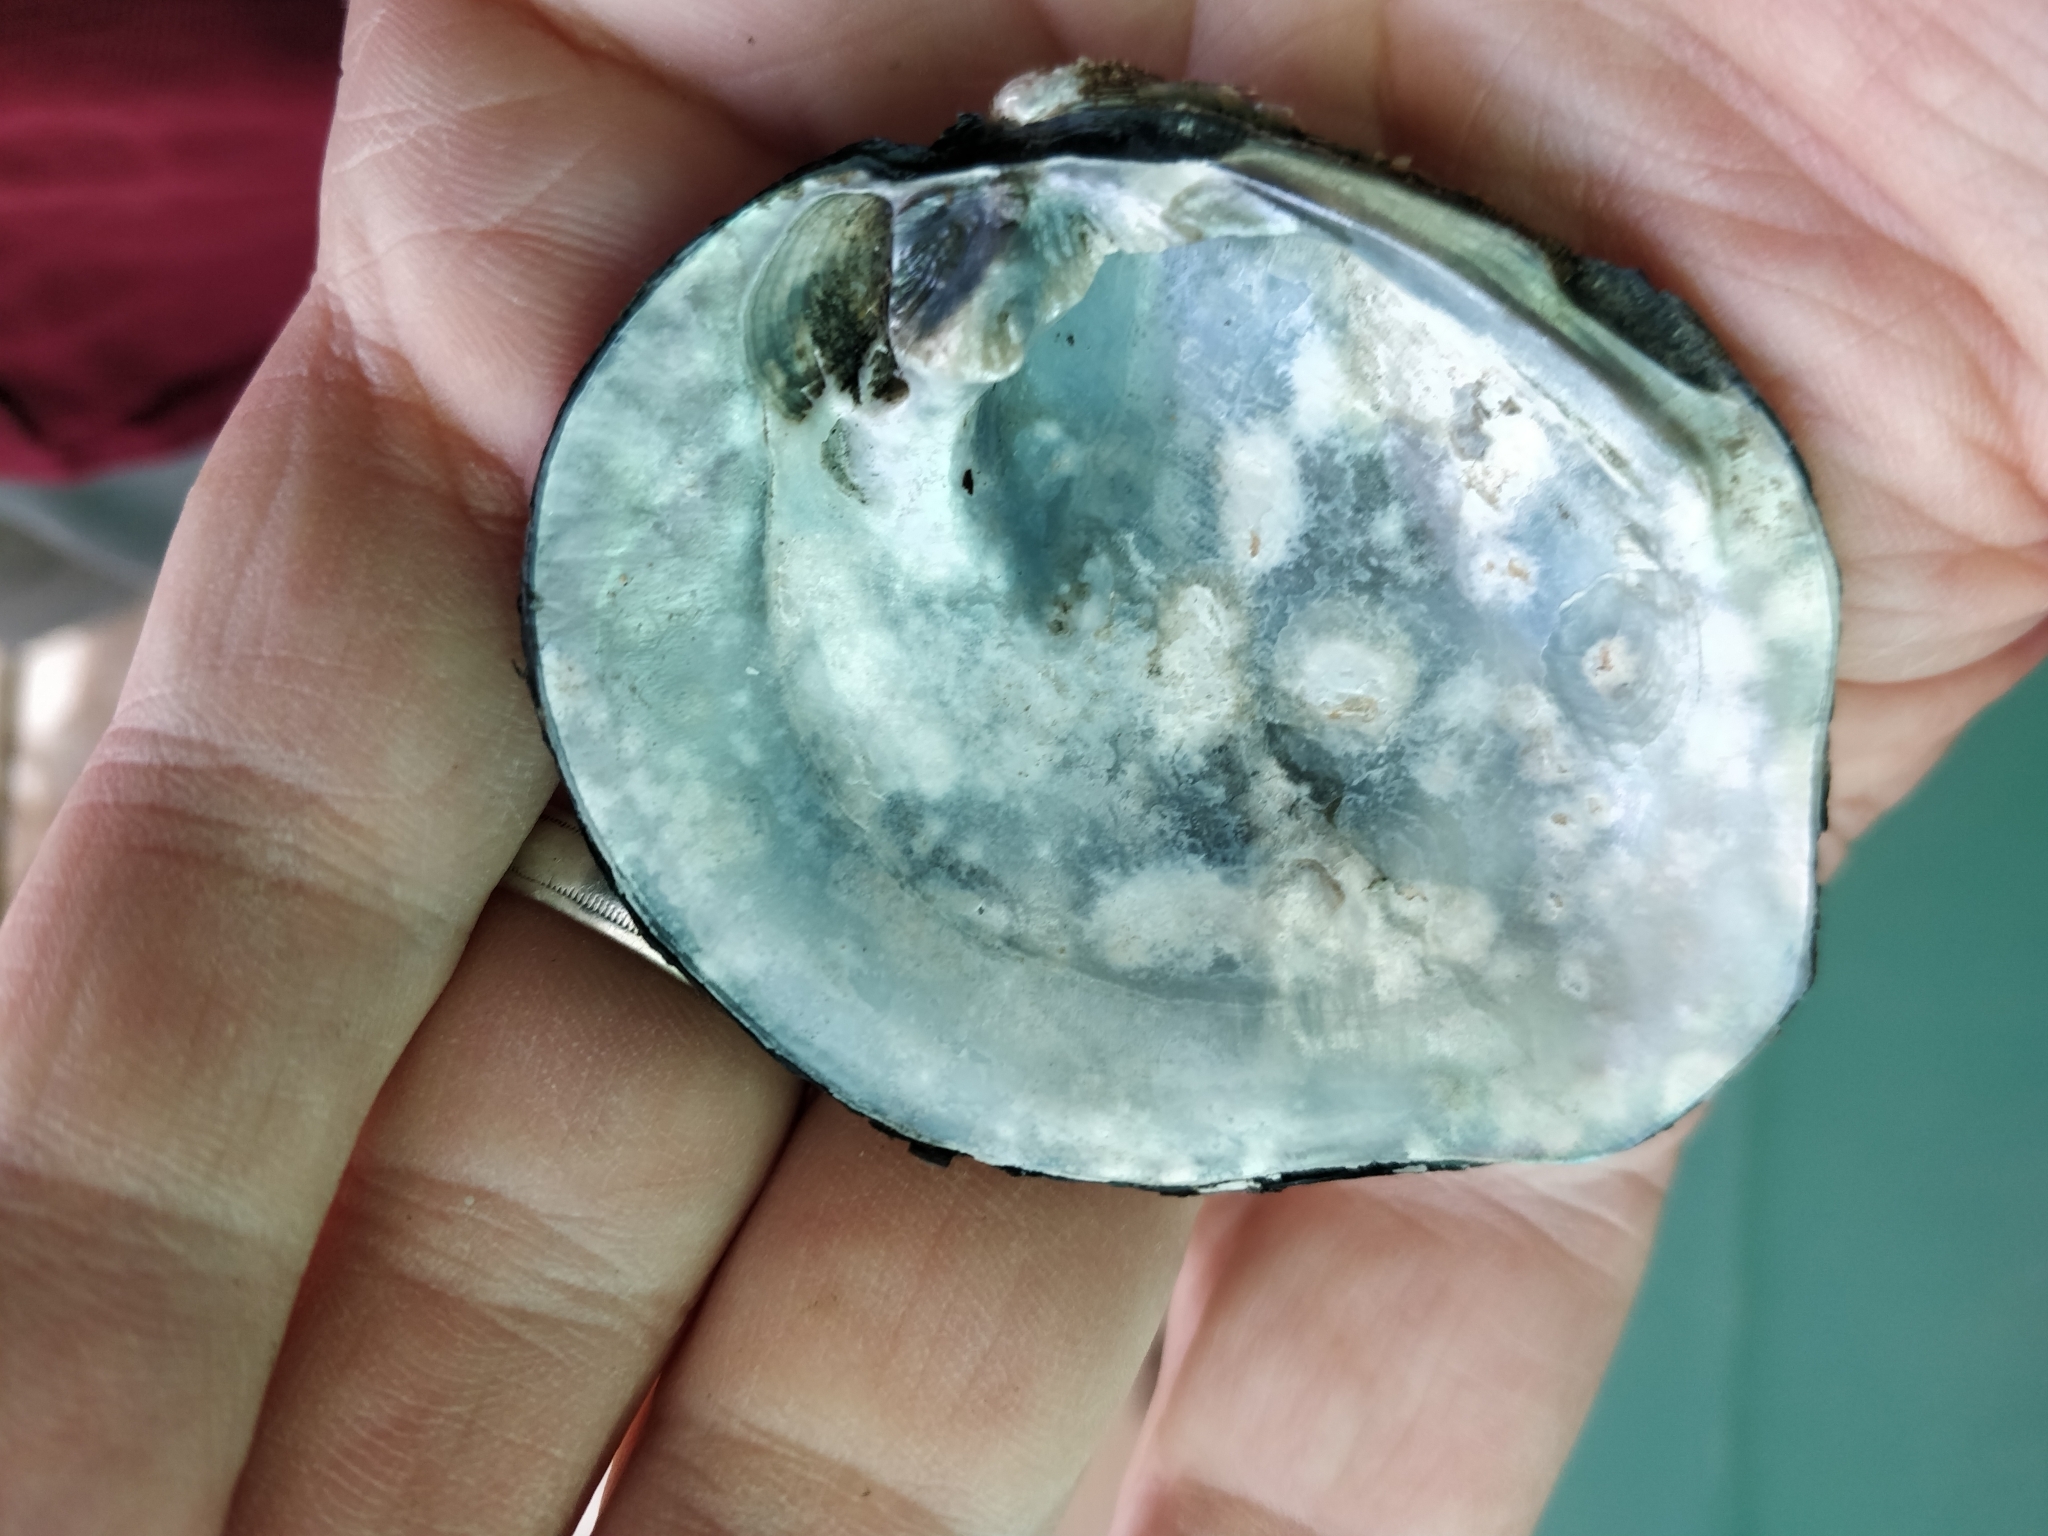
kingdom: Animalia
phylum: Mollusca
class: Bivalvia
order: Unionida
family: Unionidae
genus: Quadrula
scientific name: Quadrula quadrula
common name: Mapleleaf
